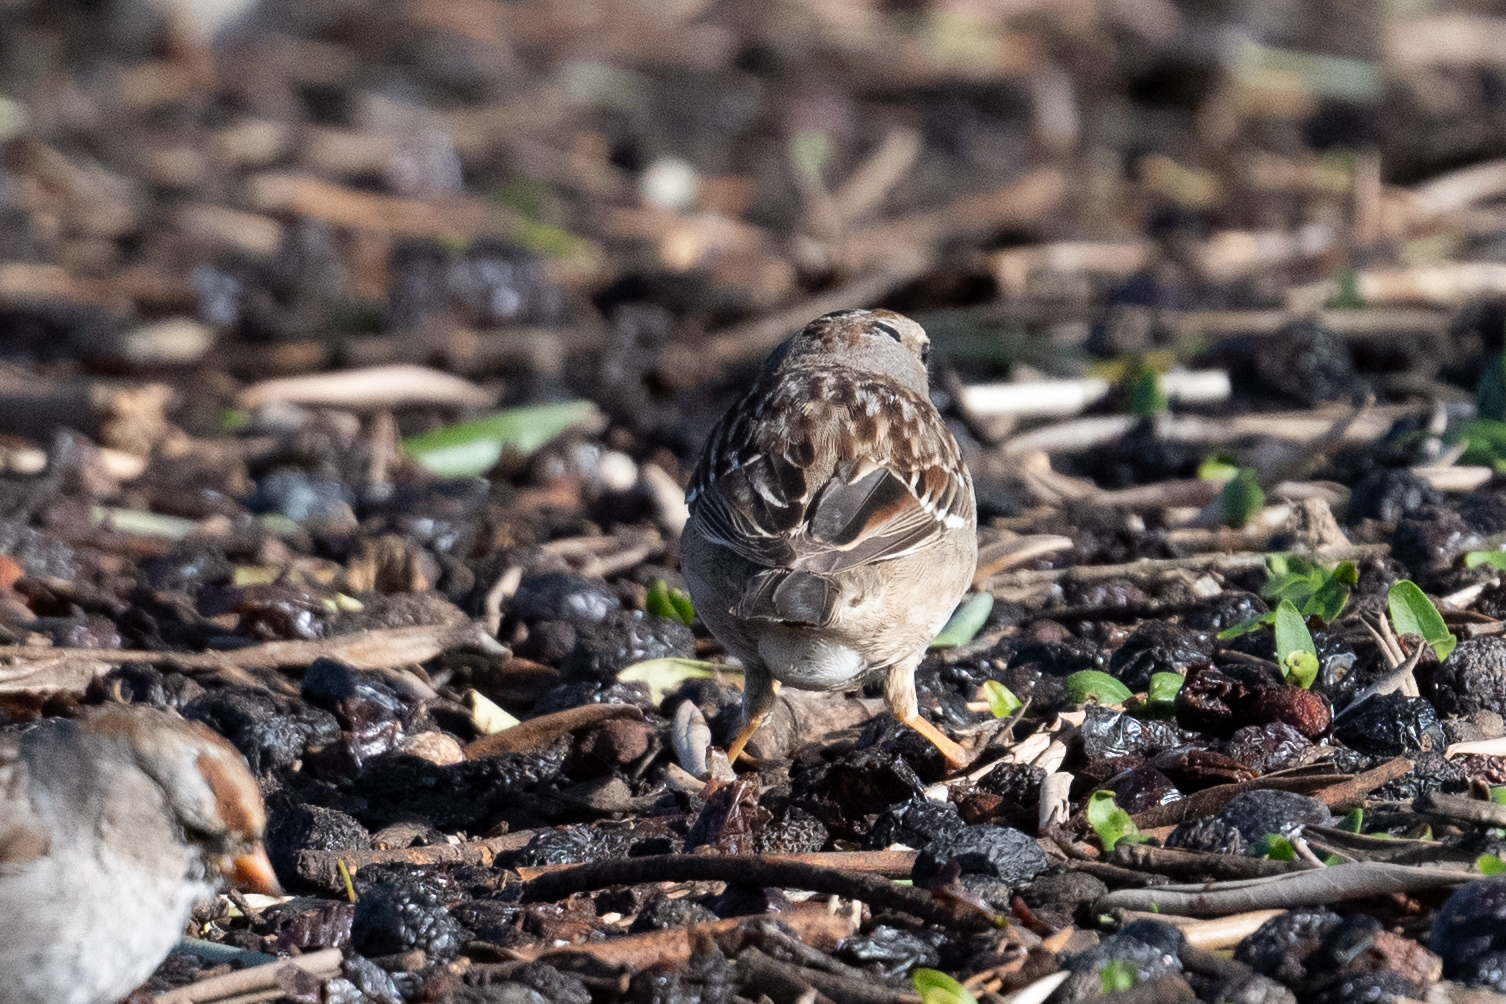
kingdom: Animalia
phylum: Chordata
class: Aves
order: Passeriformes
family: Passerellidae
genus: Zonotrichia
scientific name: Zonotrichia leucophrys
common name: White-crowned sparrow
